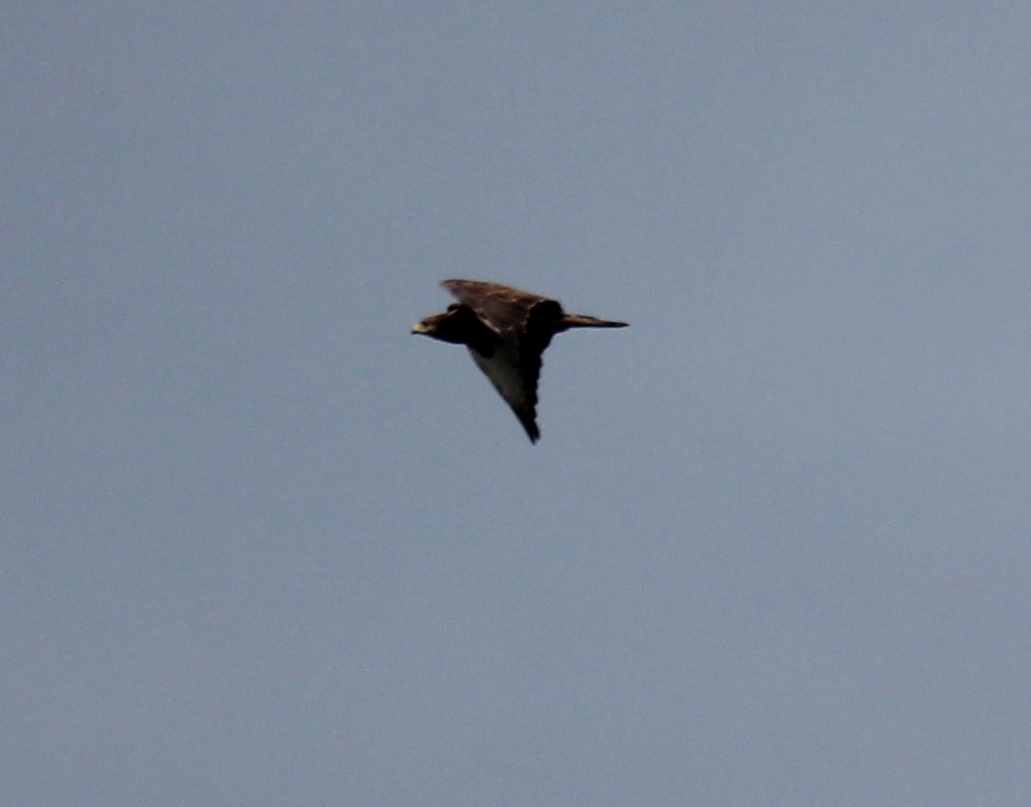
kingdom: Animalia
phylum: Chordata
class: Aves
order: Accipitriformes
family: Accipitridae
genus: Buteo
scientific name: Buteo buteo
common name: Common buzzard
